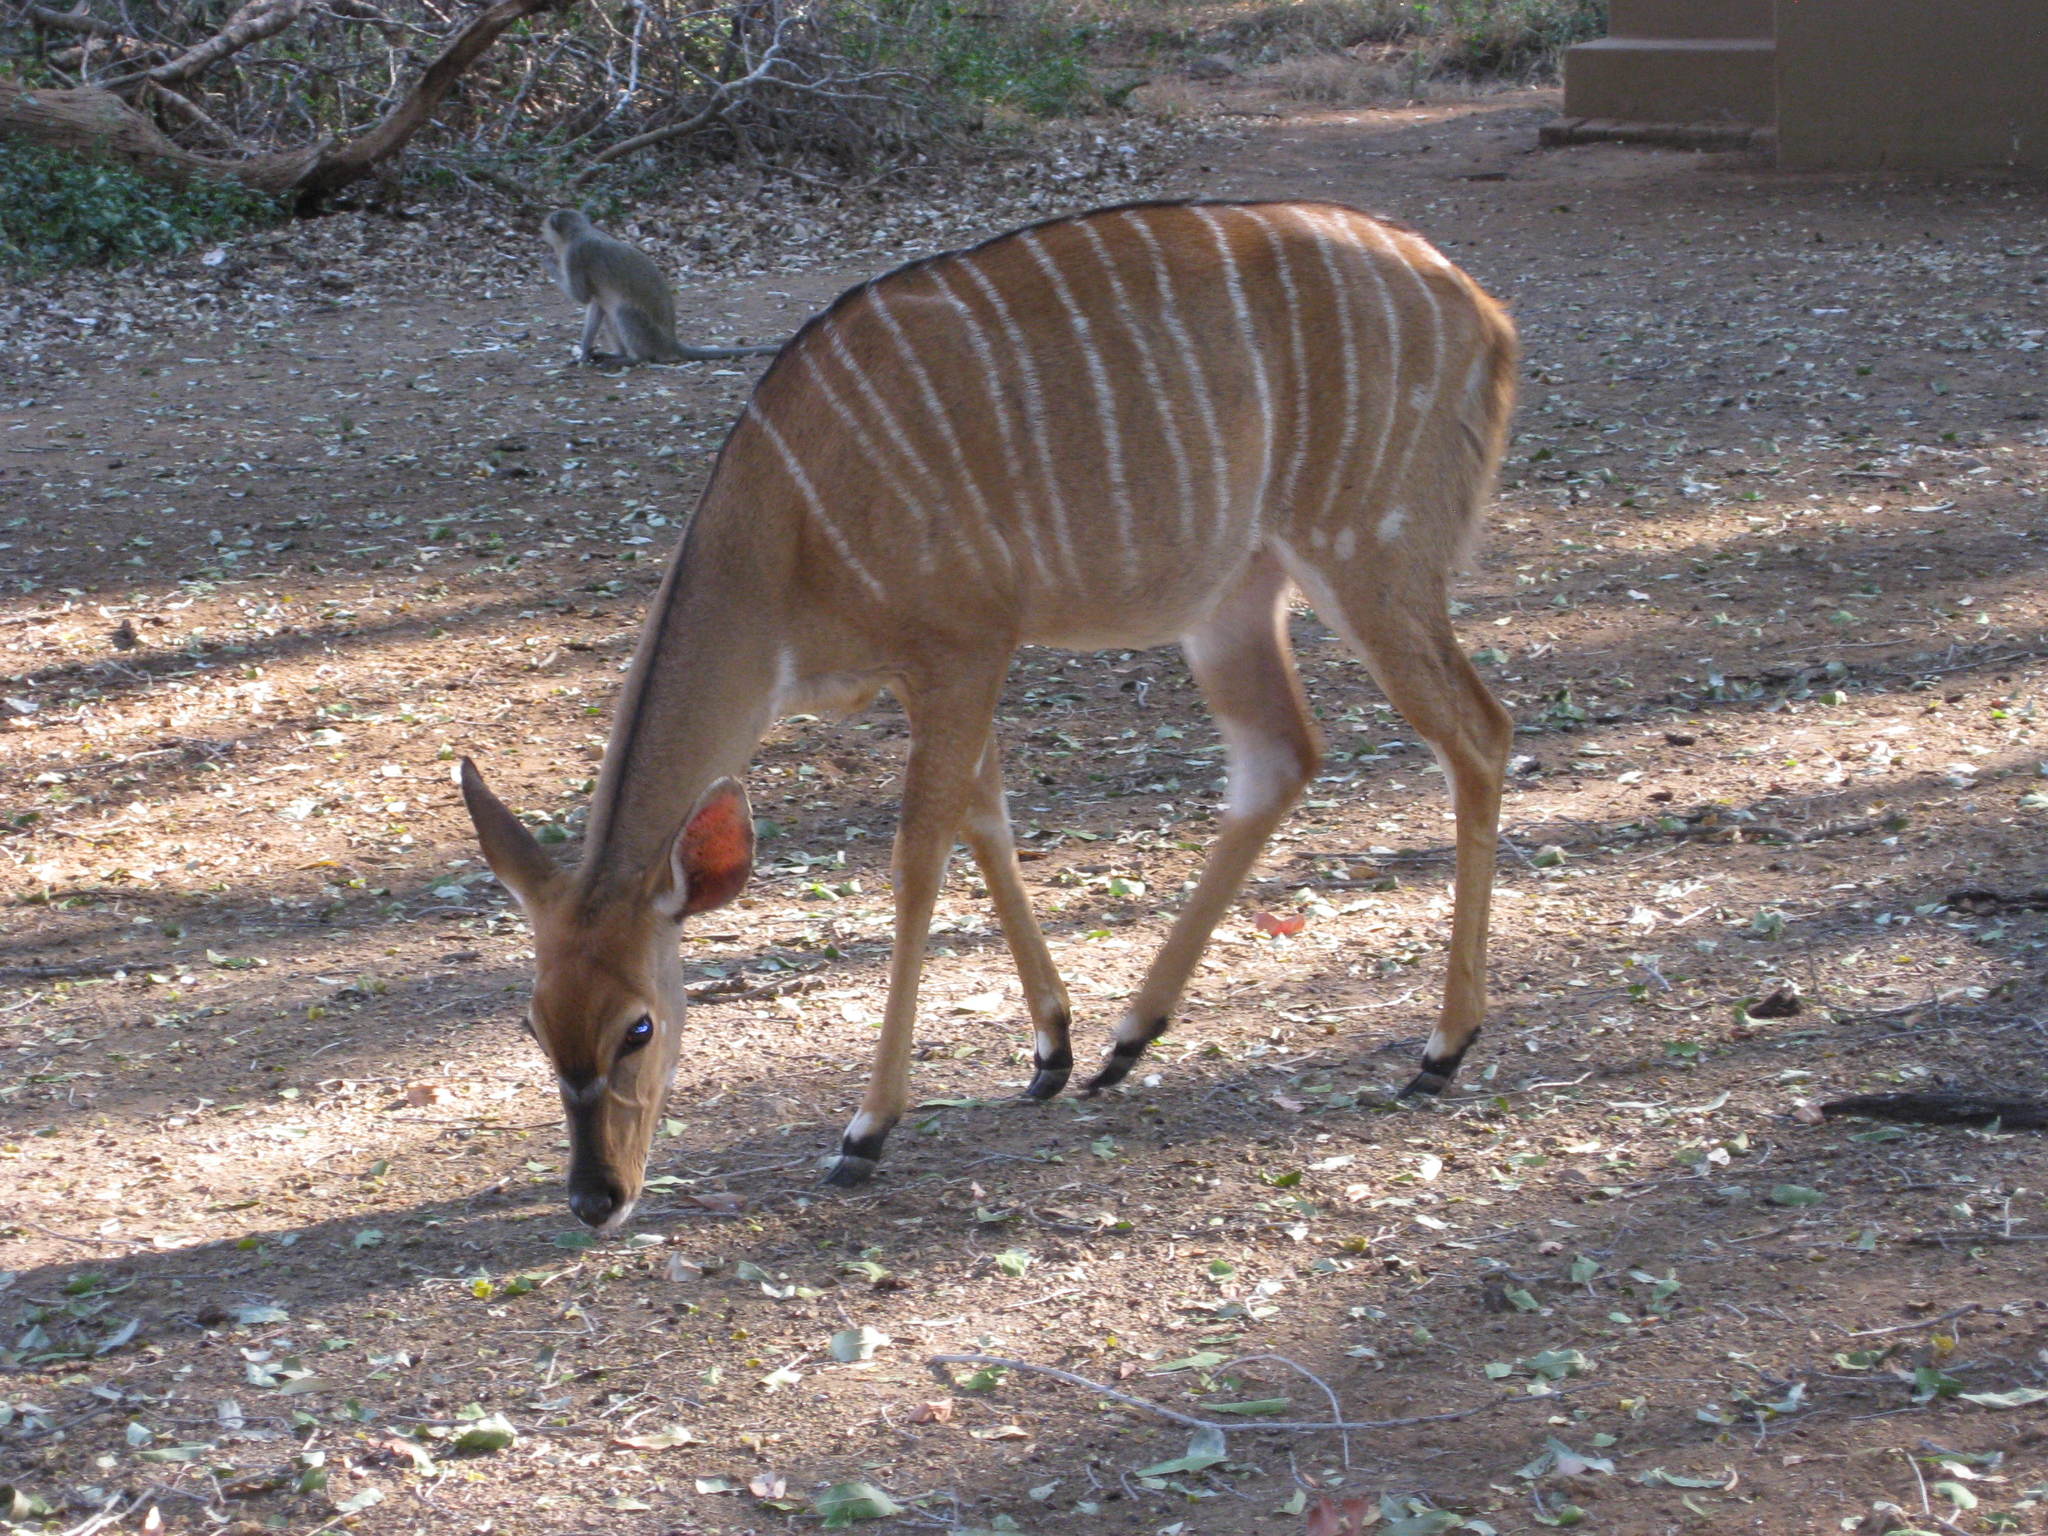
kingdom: Animalia
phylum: Chordata
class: Mammalia
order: Artiodactyla
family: Bovidae
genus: Tragelaphus
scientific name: Tragelaphus angasii
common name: Nyala
